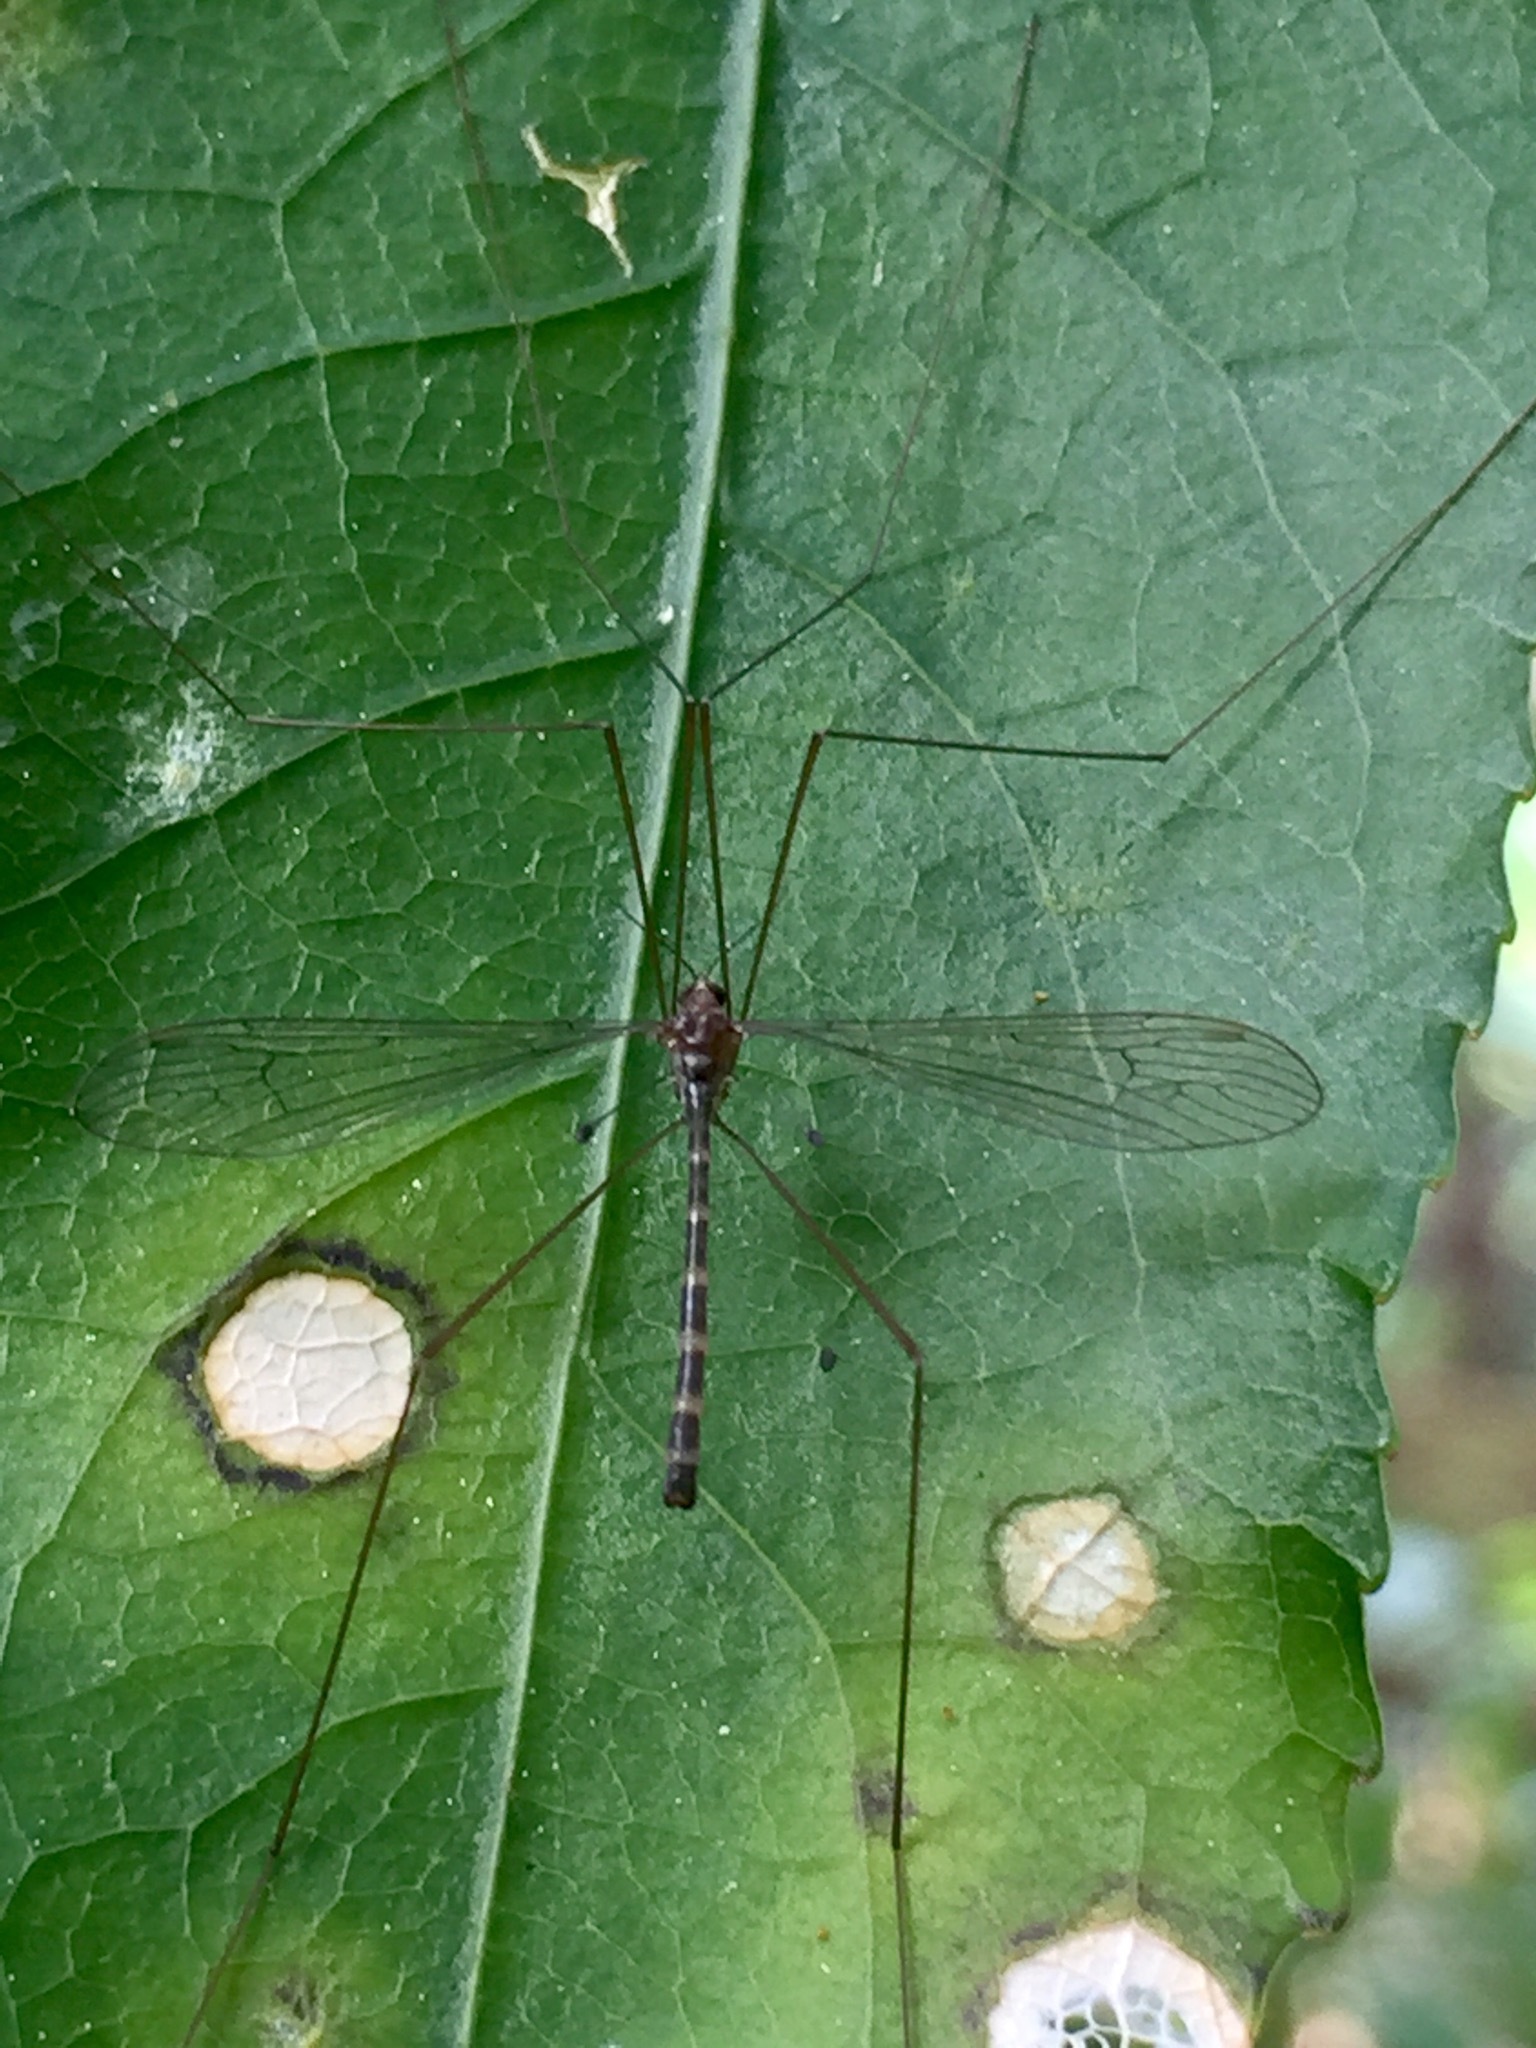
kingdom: Animalia
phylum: Arthropoda
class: Insecta
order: Diptera
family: Limoniidae
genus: Limnophilella
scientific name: Limnophilella delicatula
